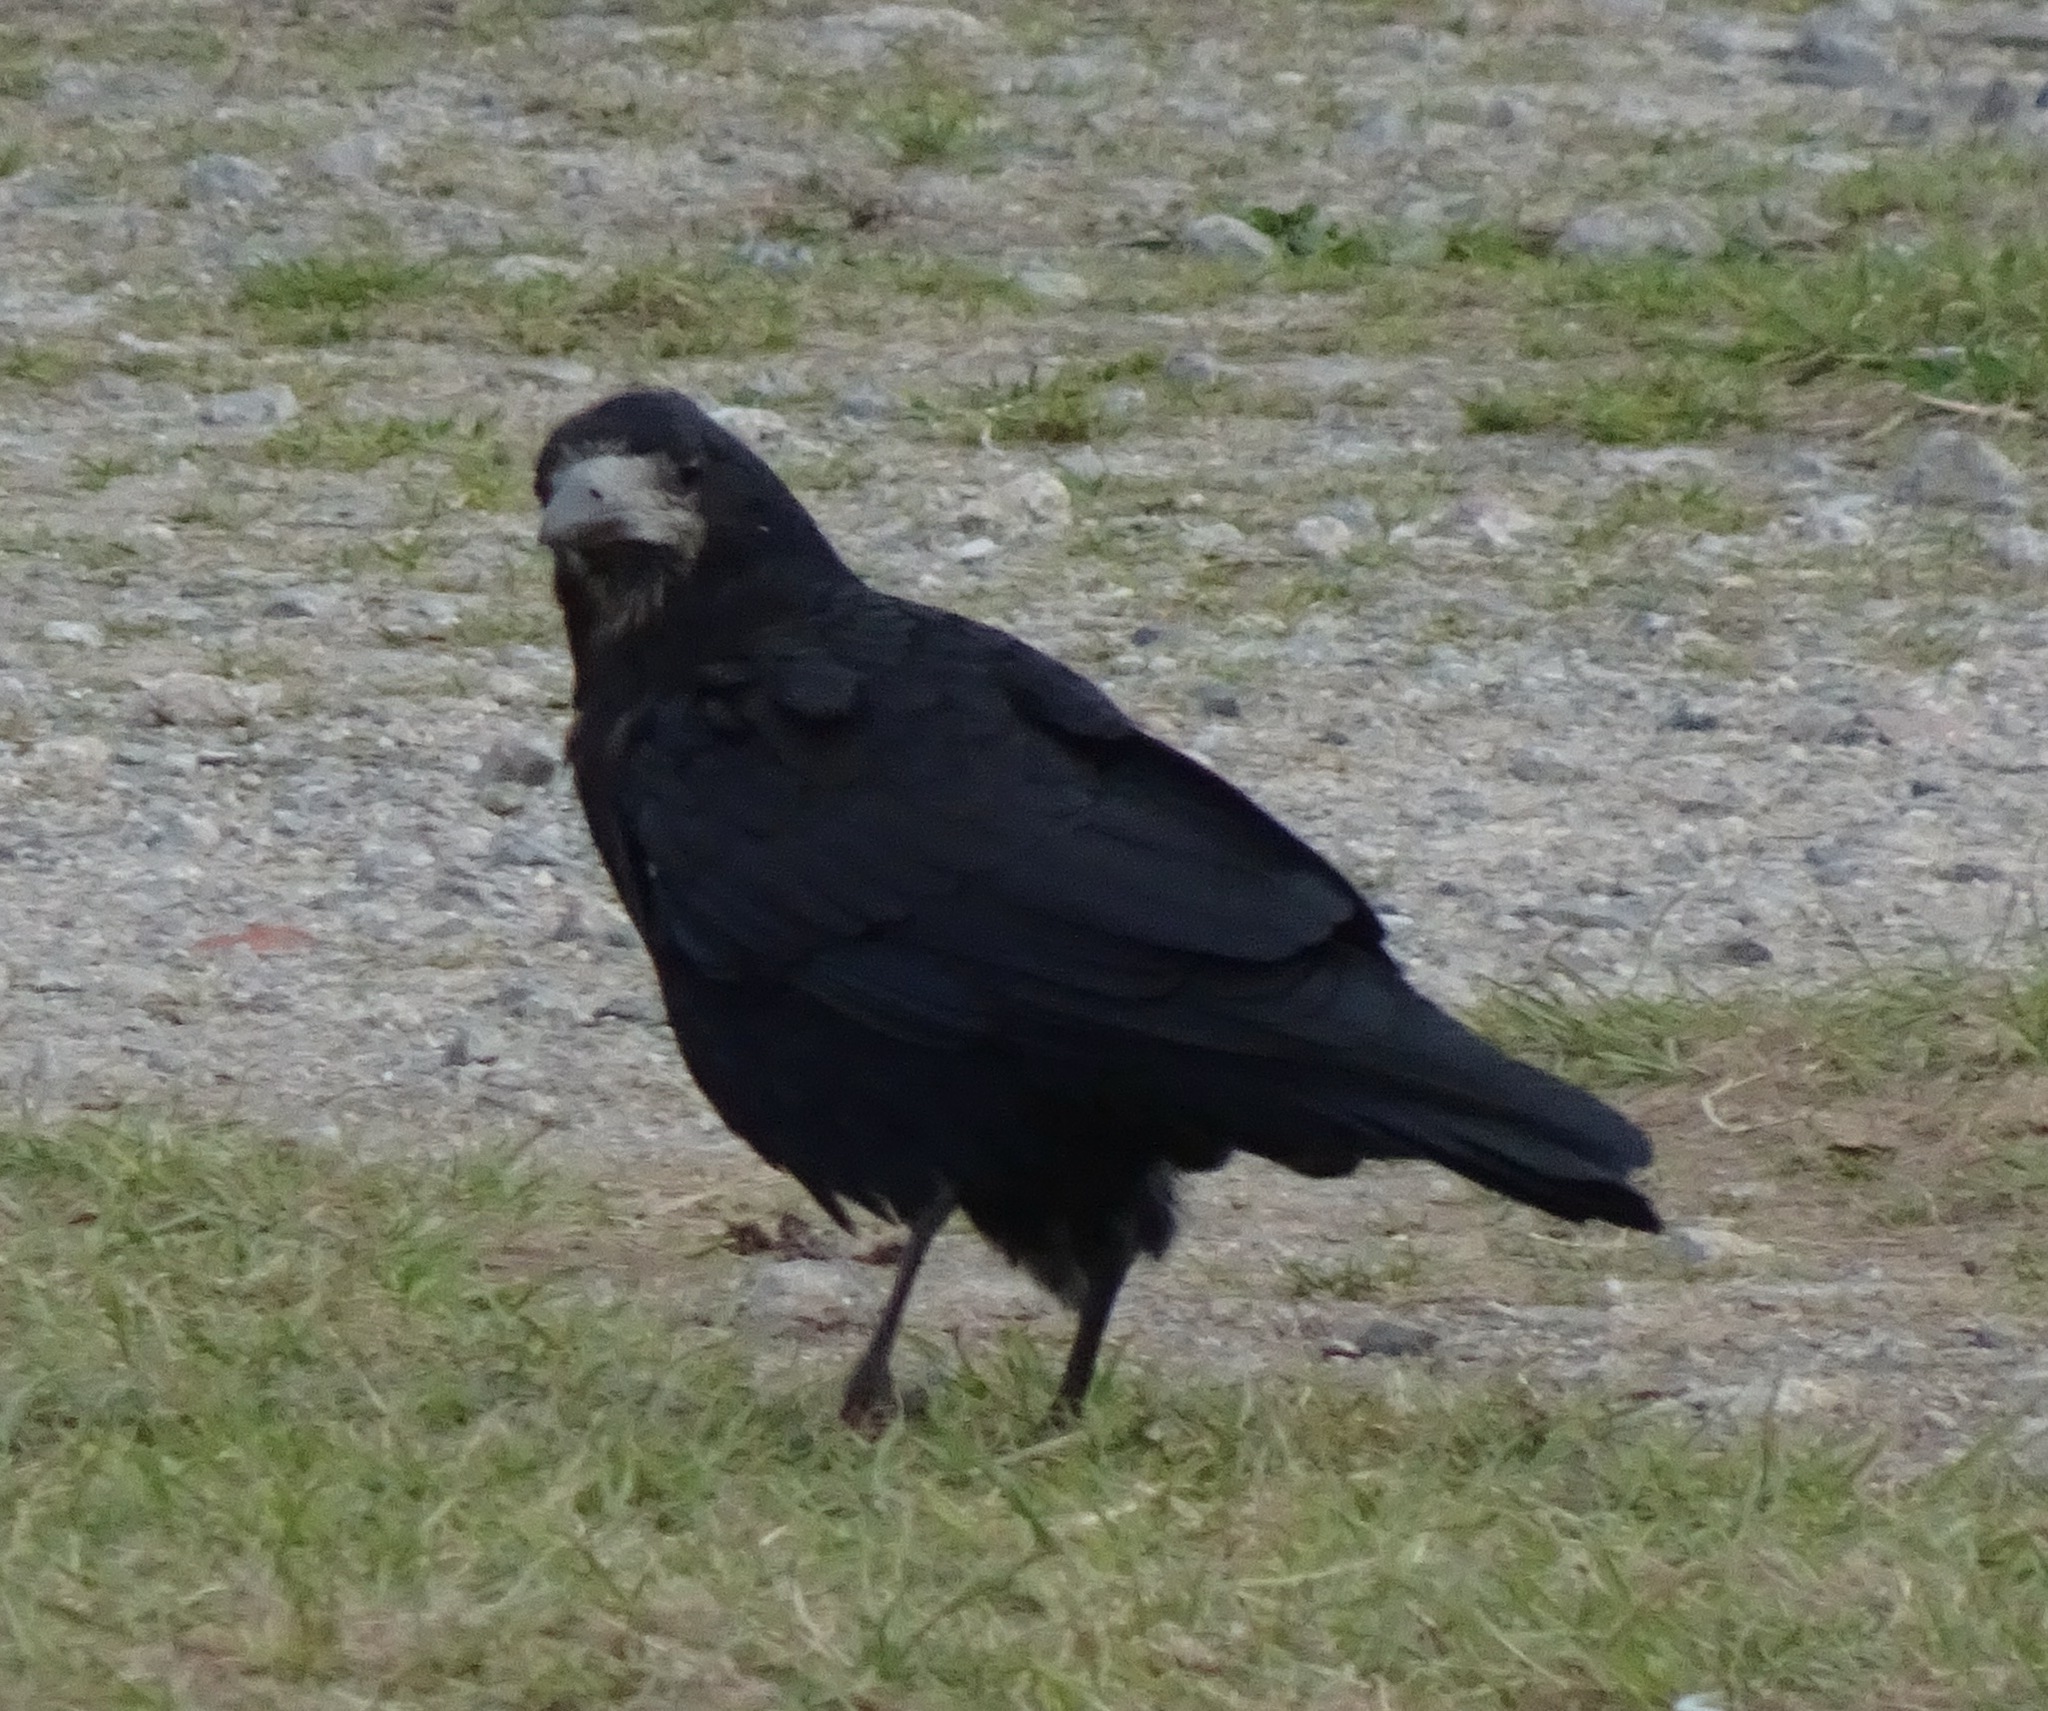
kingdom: Animalia
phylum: Chordata
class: Aves
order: Passeriformes
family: Corvidae
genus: Corvus
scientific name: Corvus frugilegus
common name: Rook
